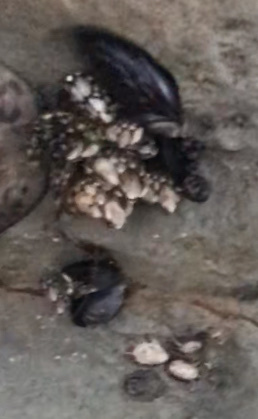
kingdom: Animalia
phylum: Arthropoda
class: Maxillopoda
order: Pedunculata
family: Pollicipedidae
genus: Pollicipes
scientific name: Pollicipes polymerus
